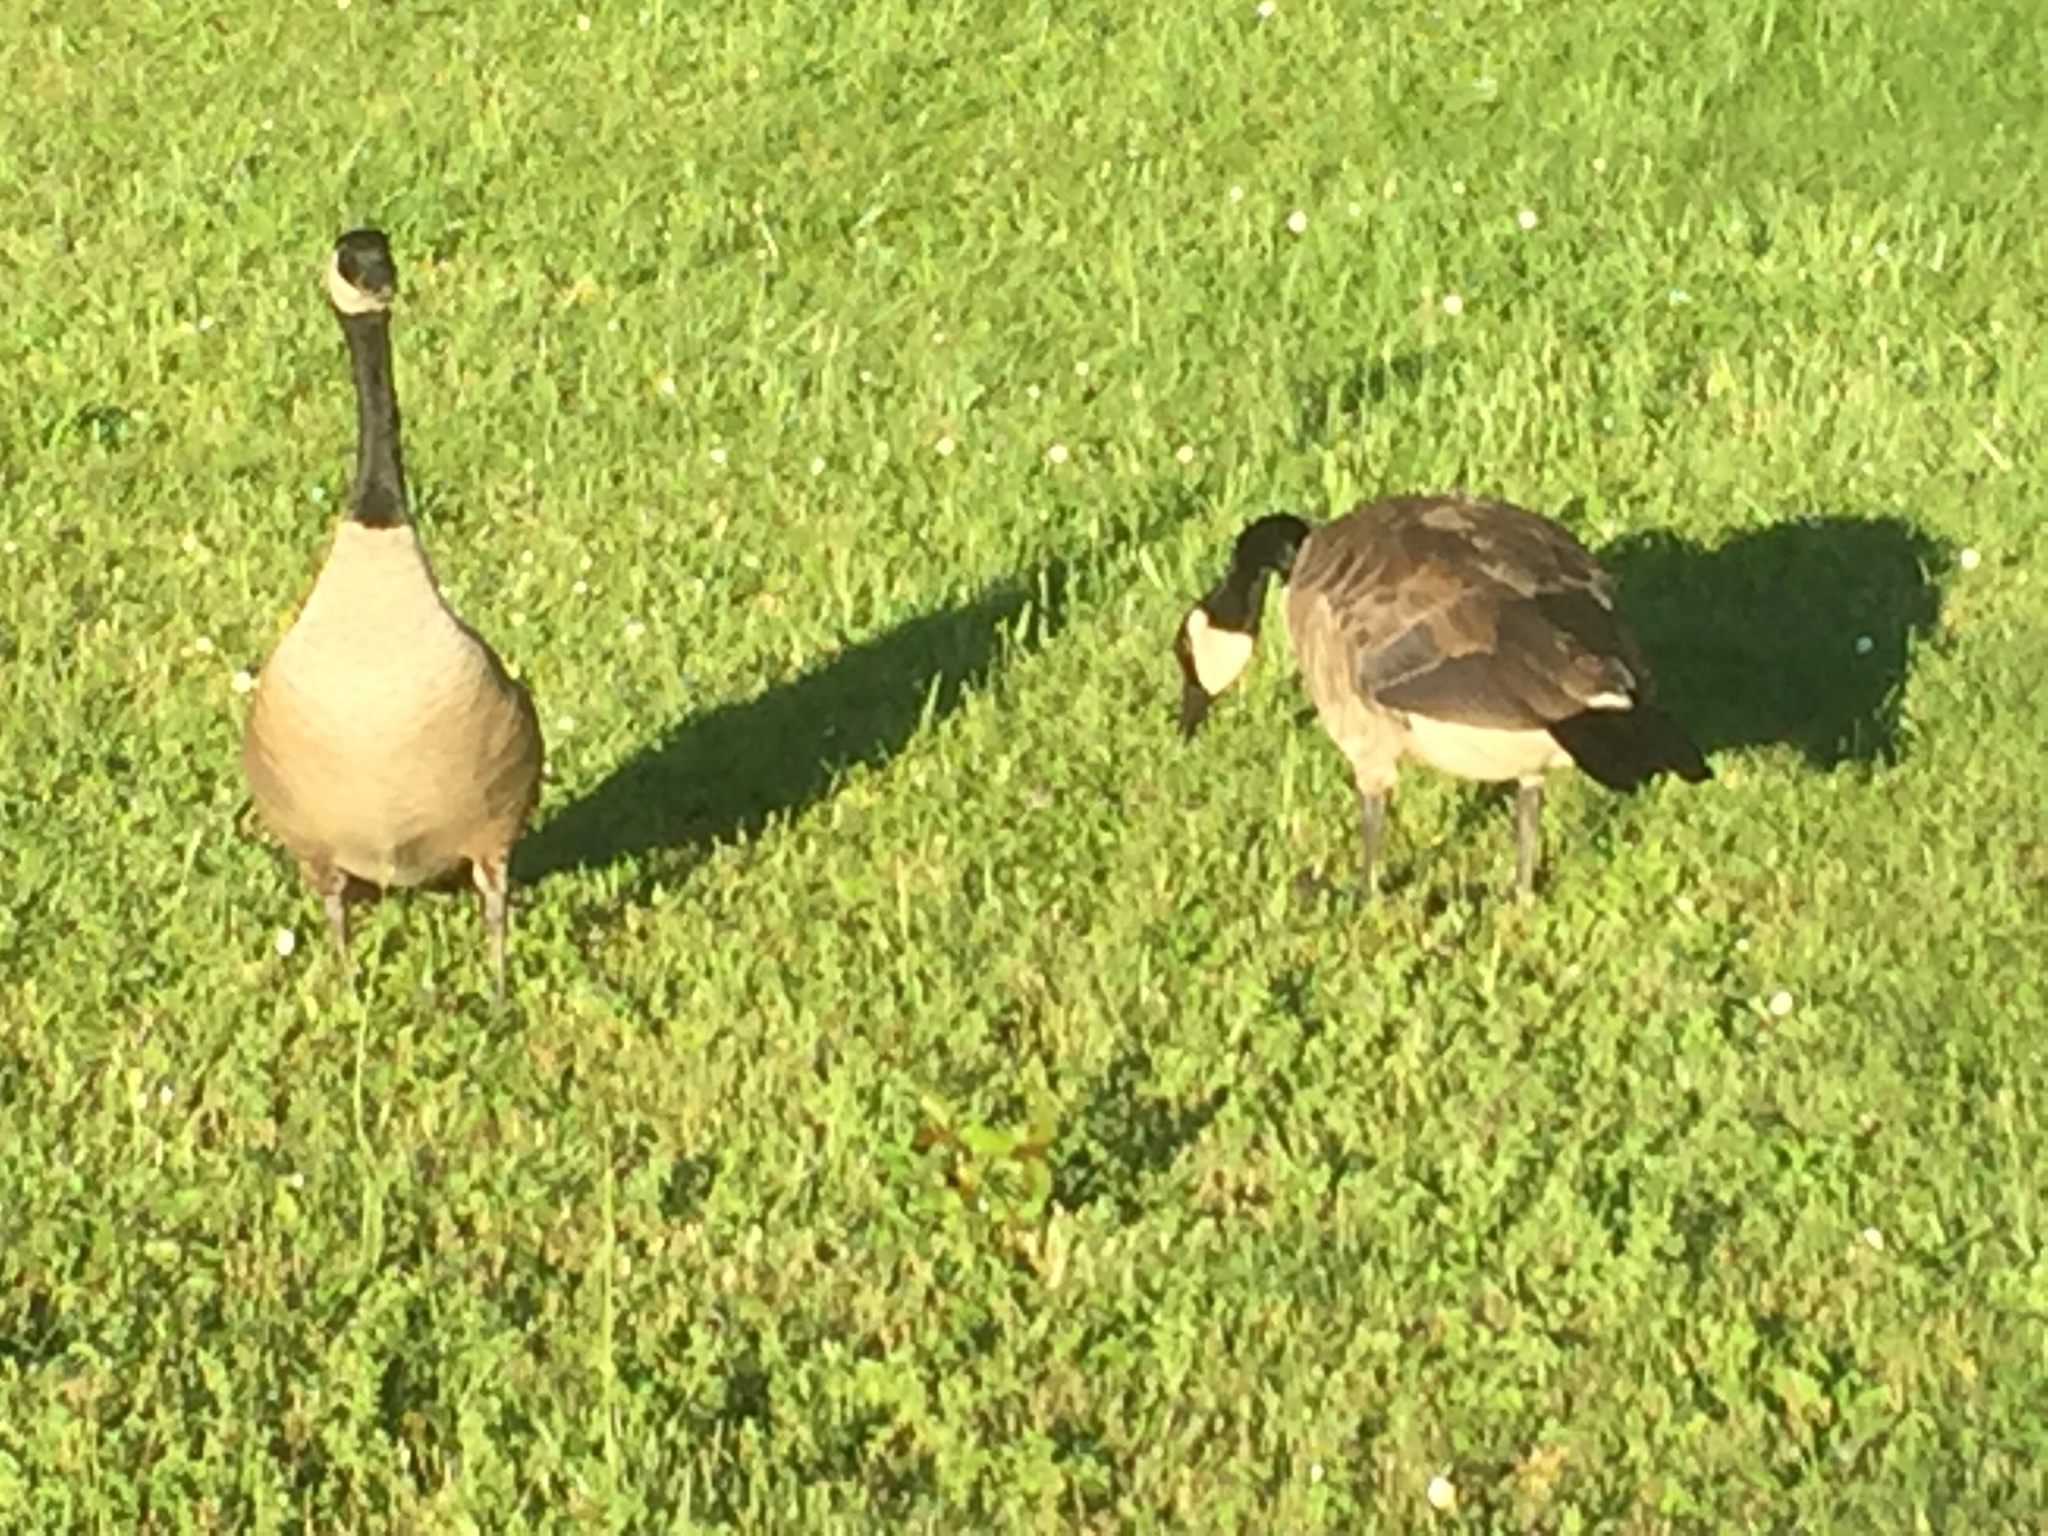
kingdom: Animalia
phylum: Chordata
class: Aves
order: Anseriformes
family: Anatidae
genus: Branta
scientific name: Branta canadensis
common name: Canada goose
